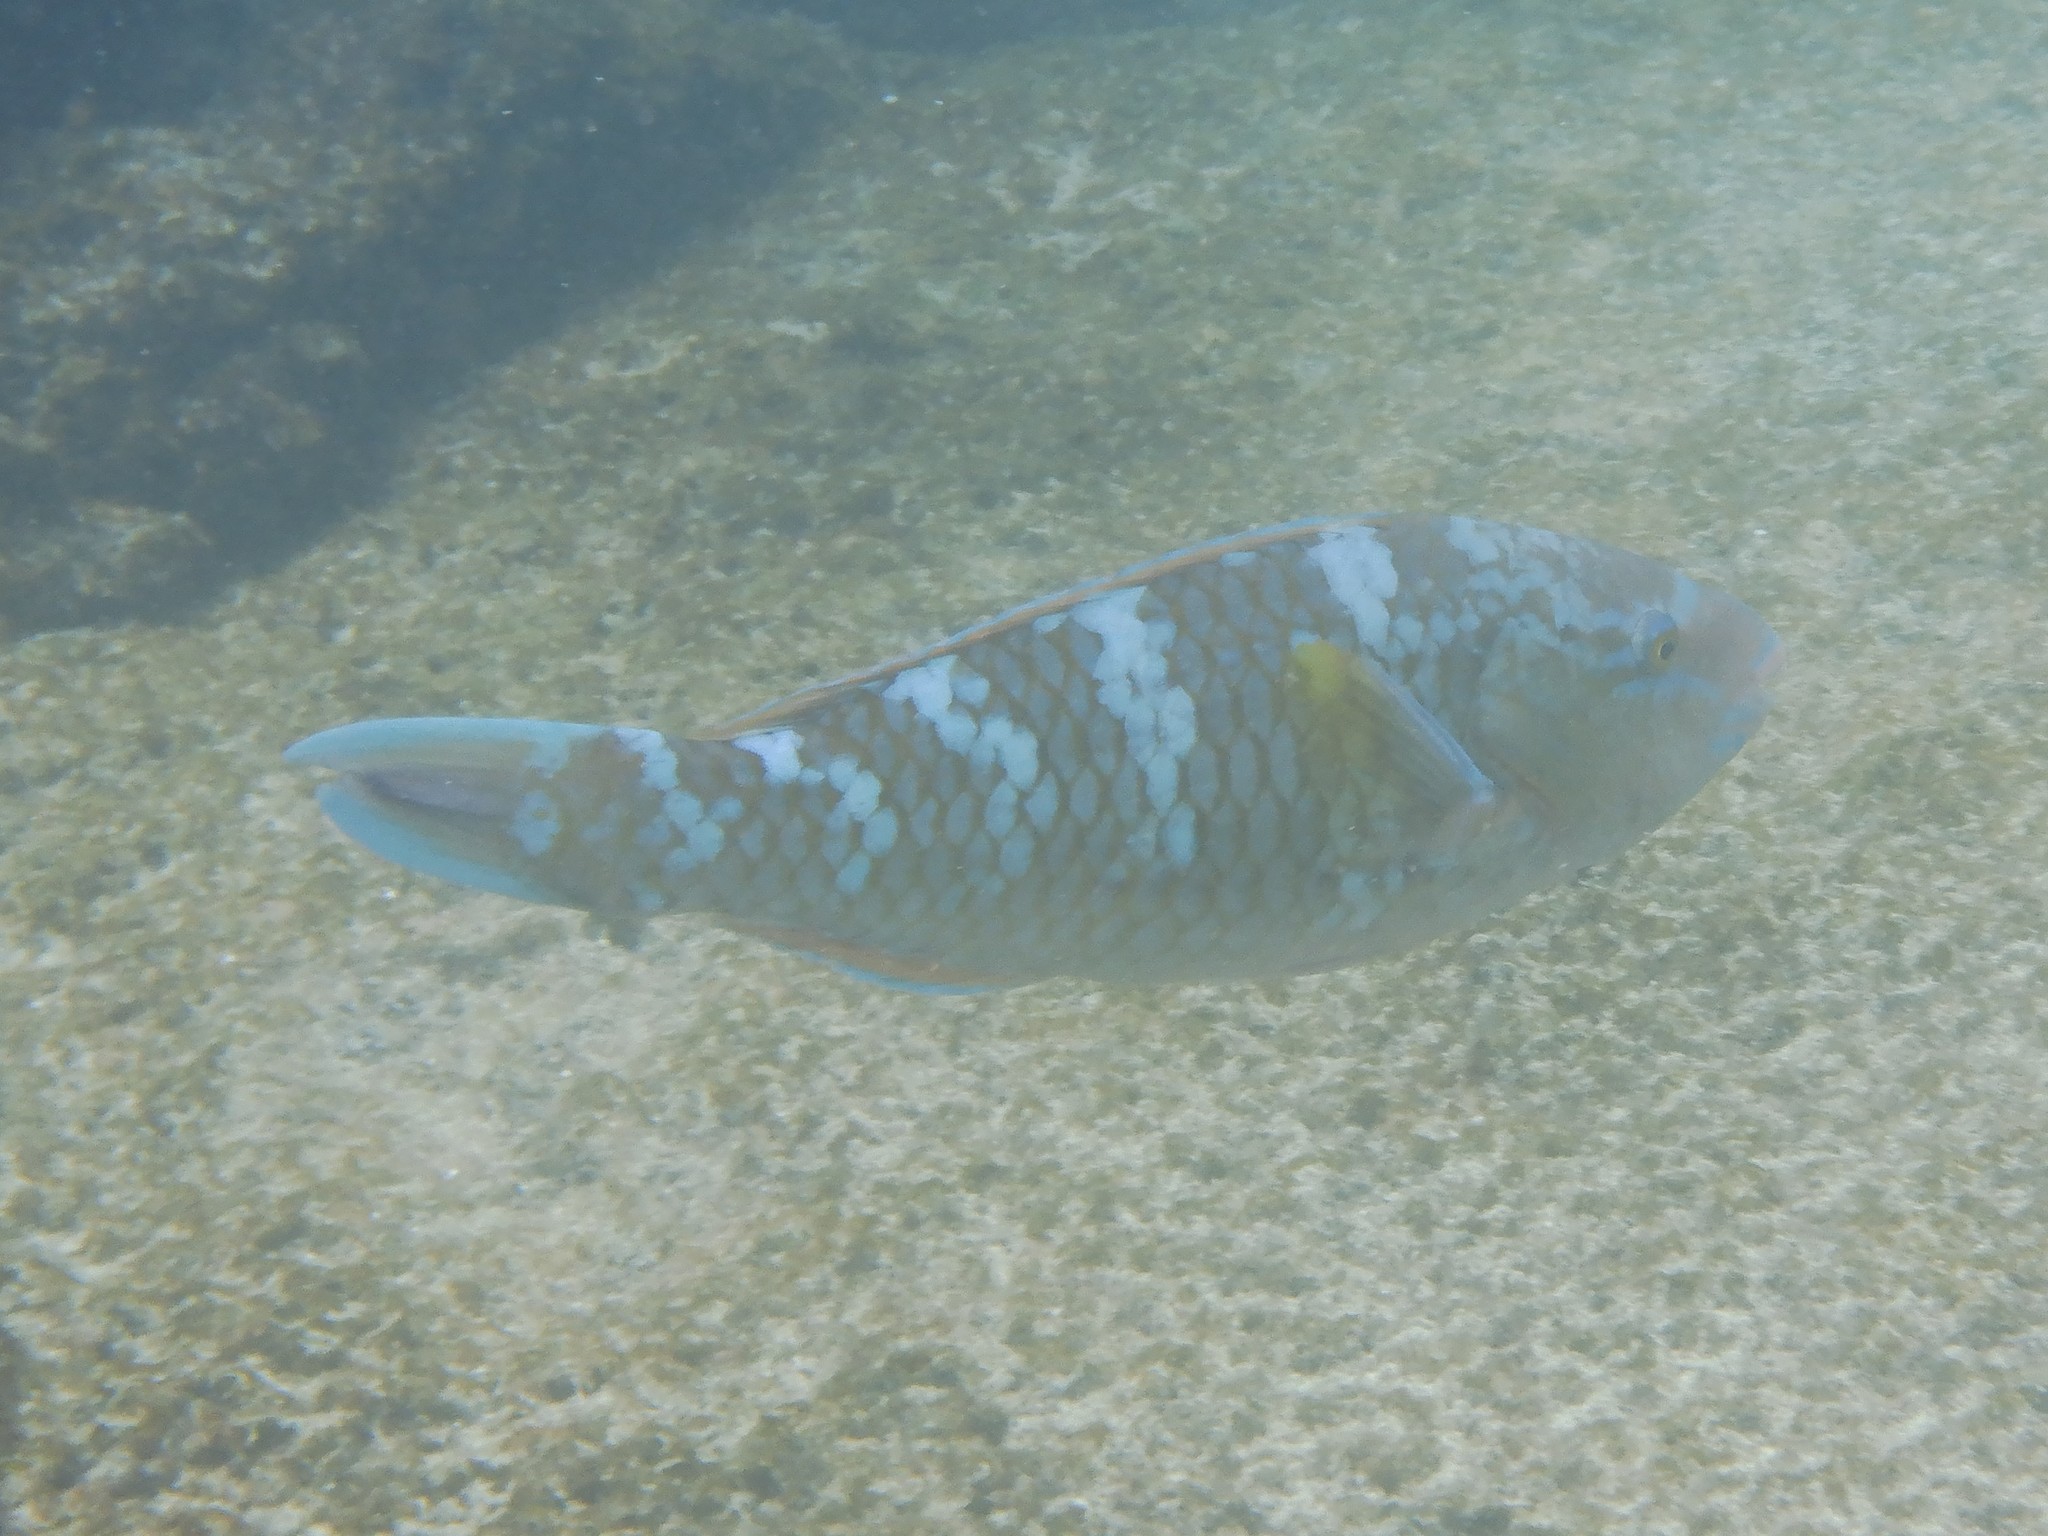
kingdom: Animalia
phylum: Chordata
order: Perciformes
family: Scaridae
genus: Scarus
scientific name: Scarus ghobban
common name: Blue-barred parrotfish
